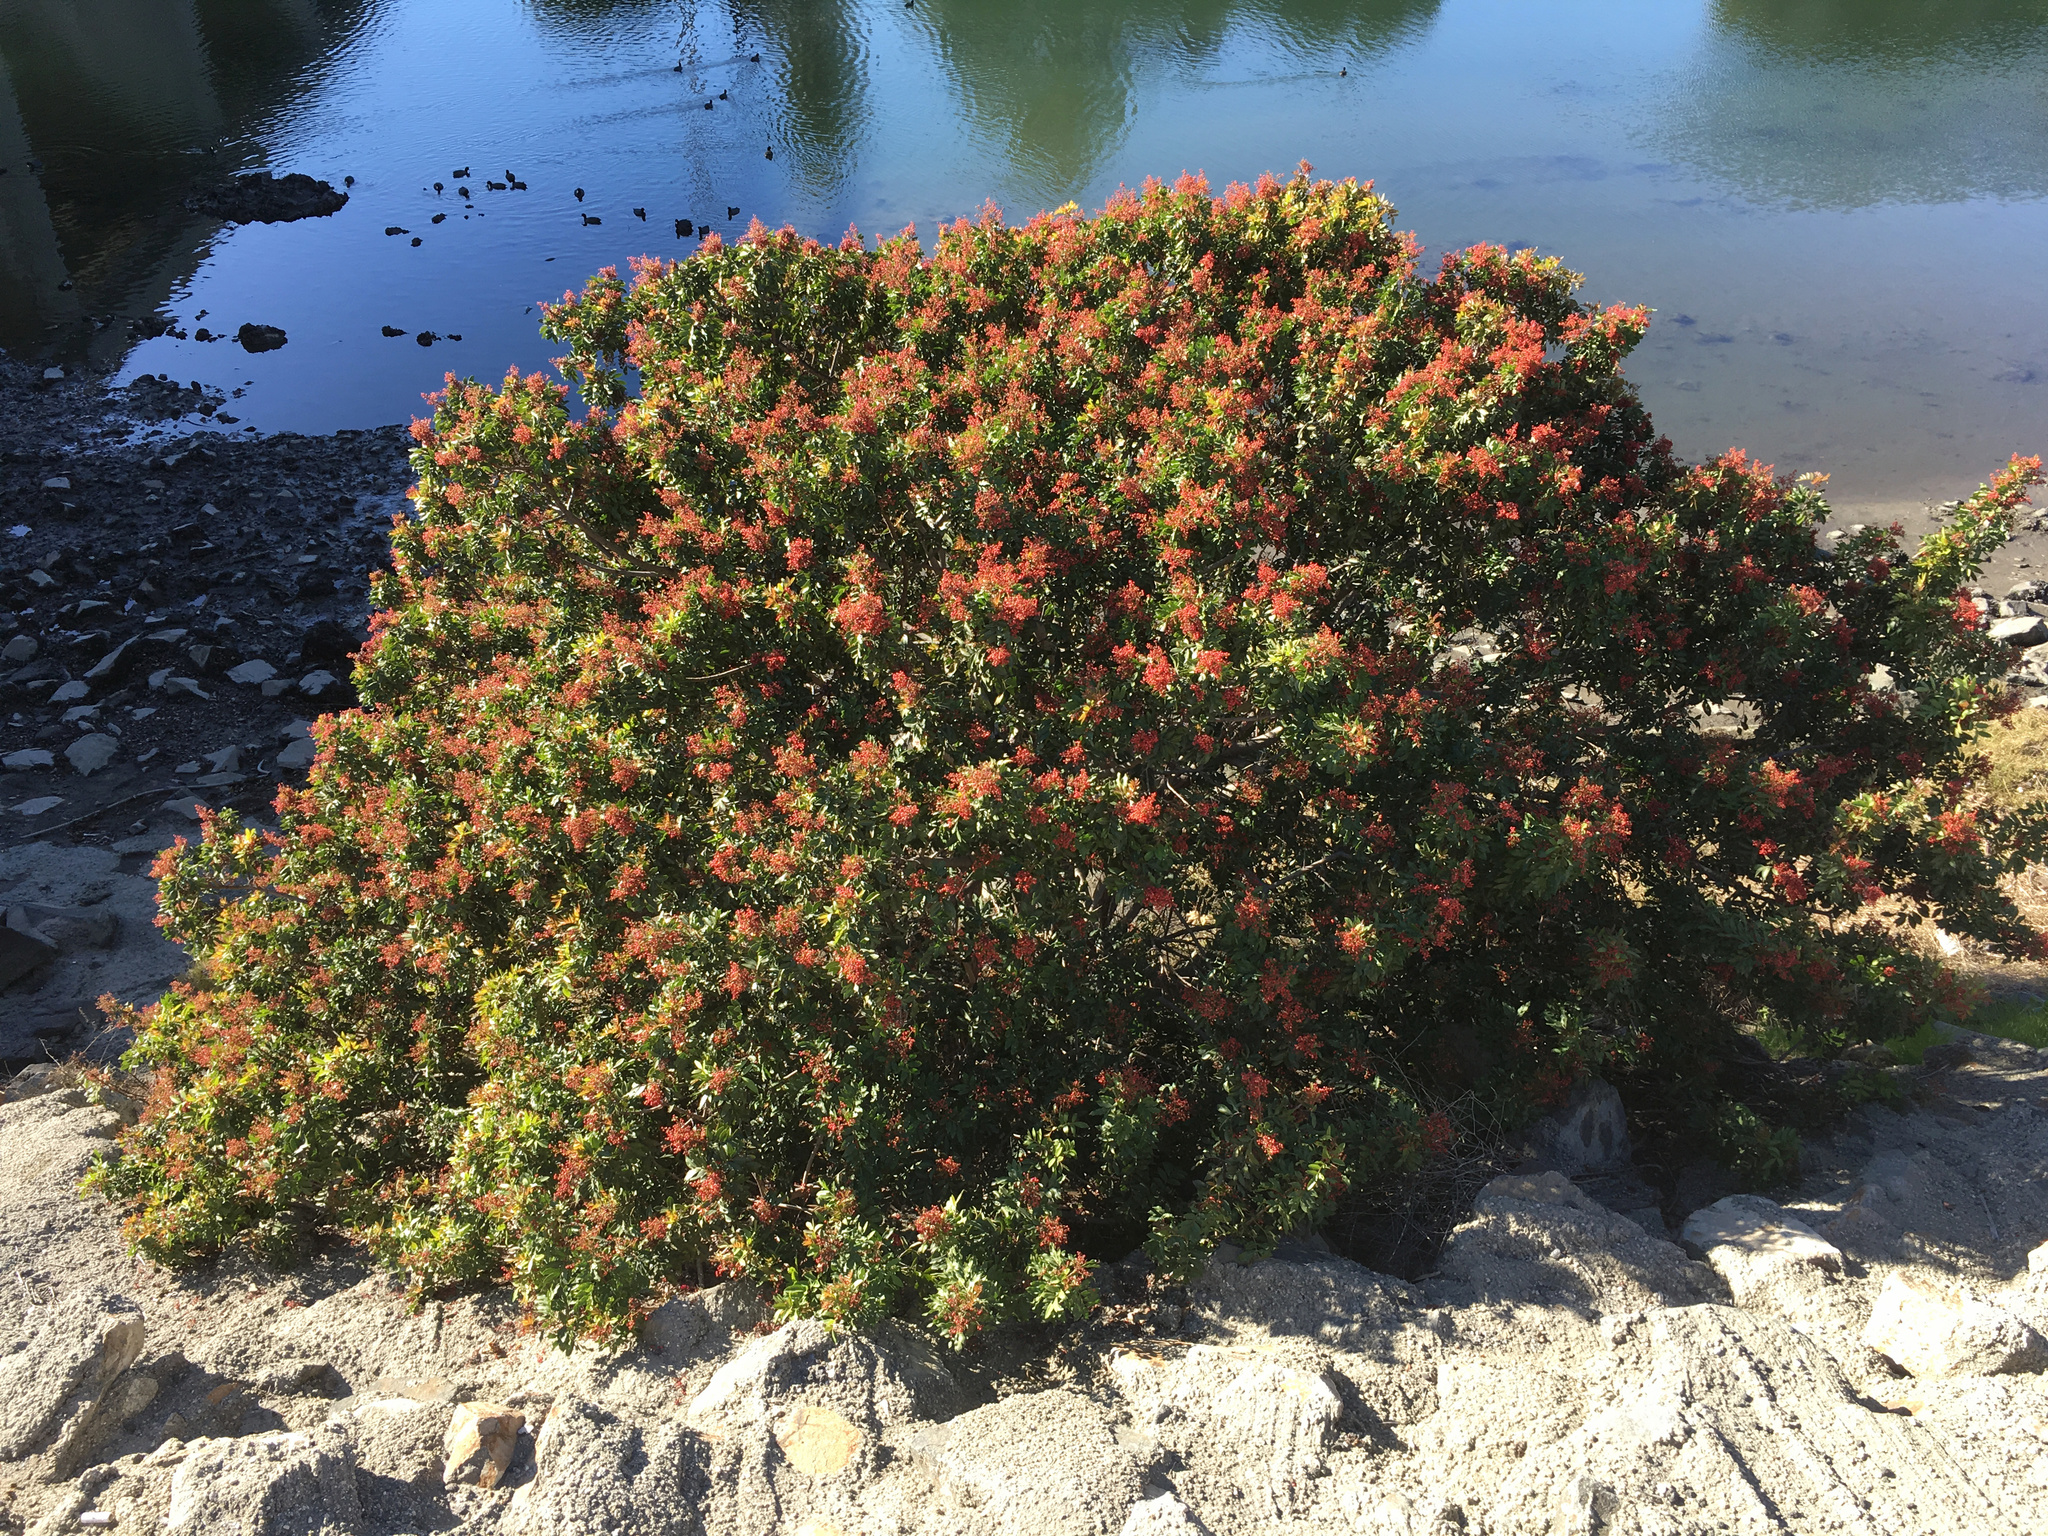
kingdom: Plantae
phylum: Tracheophyta
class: Magnoliopsida
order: Sapindales
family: Anacardiaceae
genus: Schinus
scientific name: Schinus terebinthifolia
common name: Brazilian peppertree
